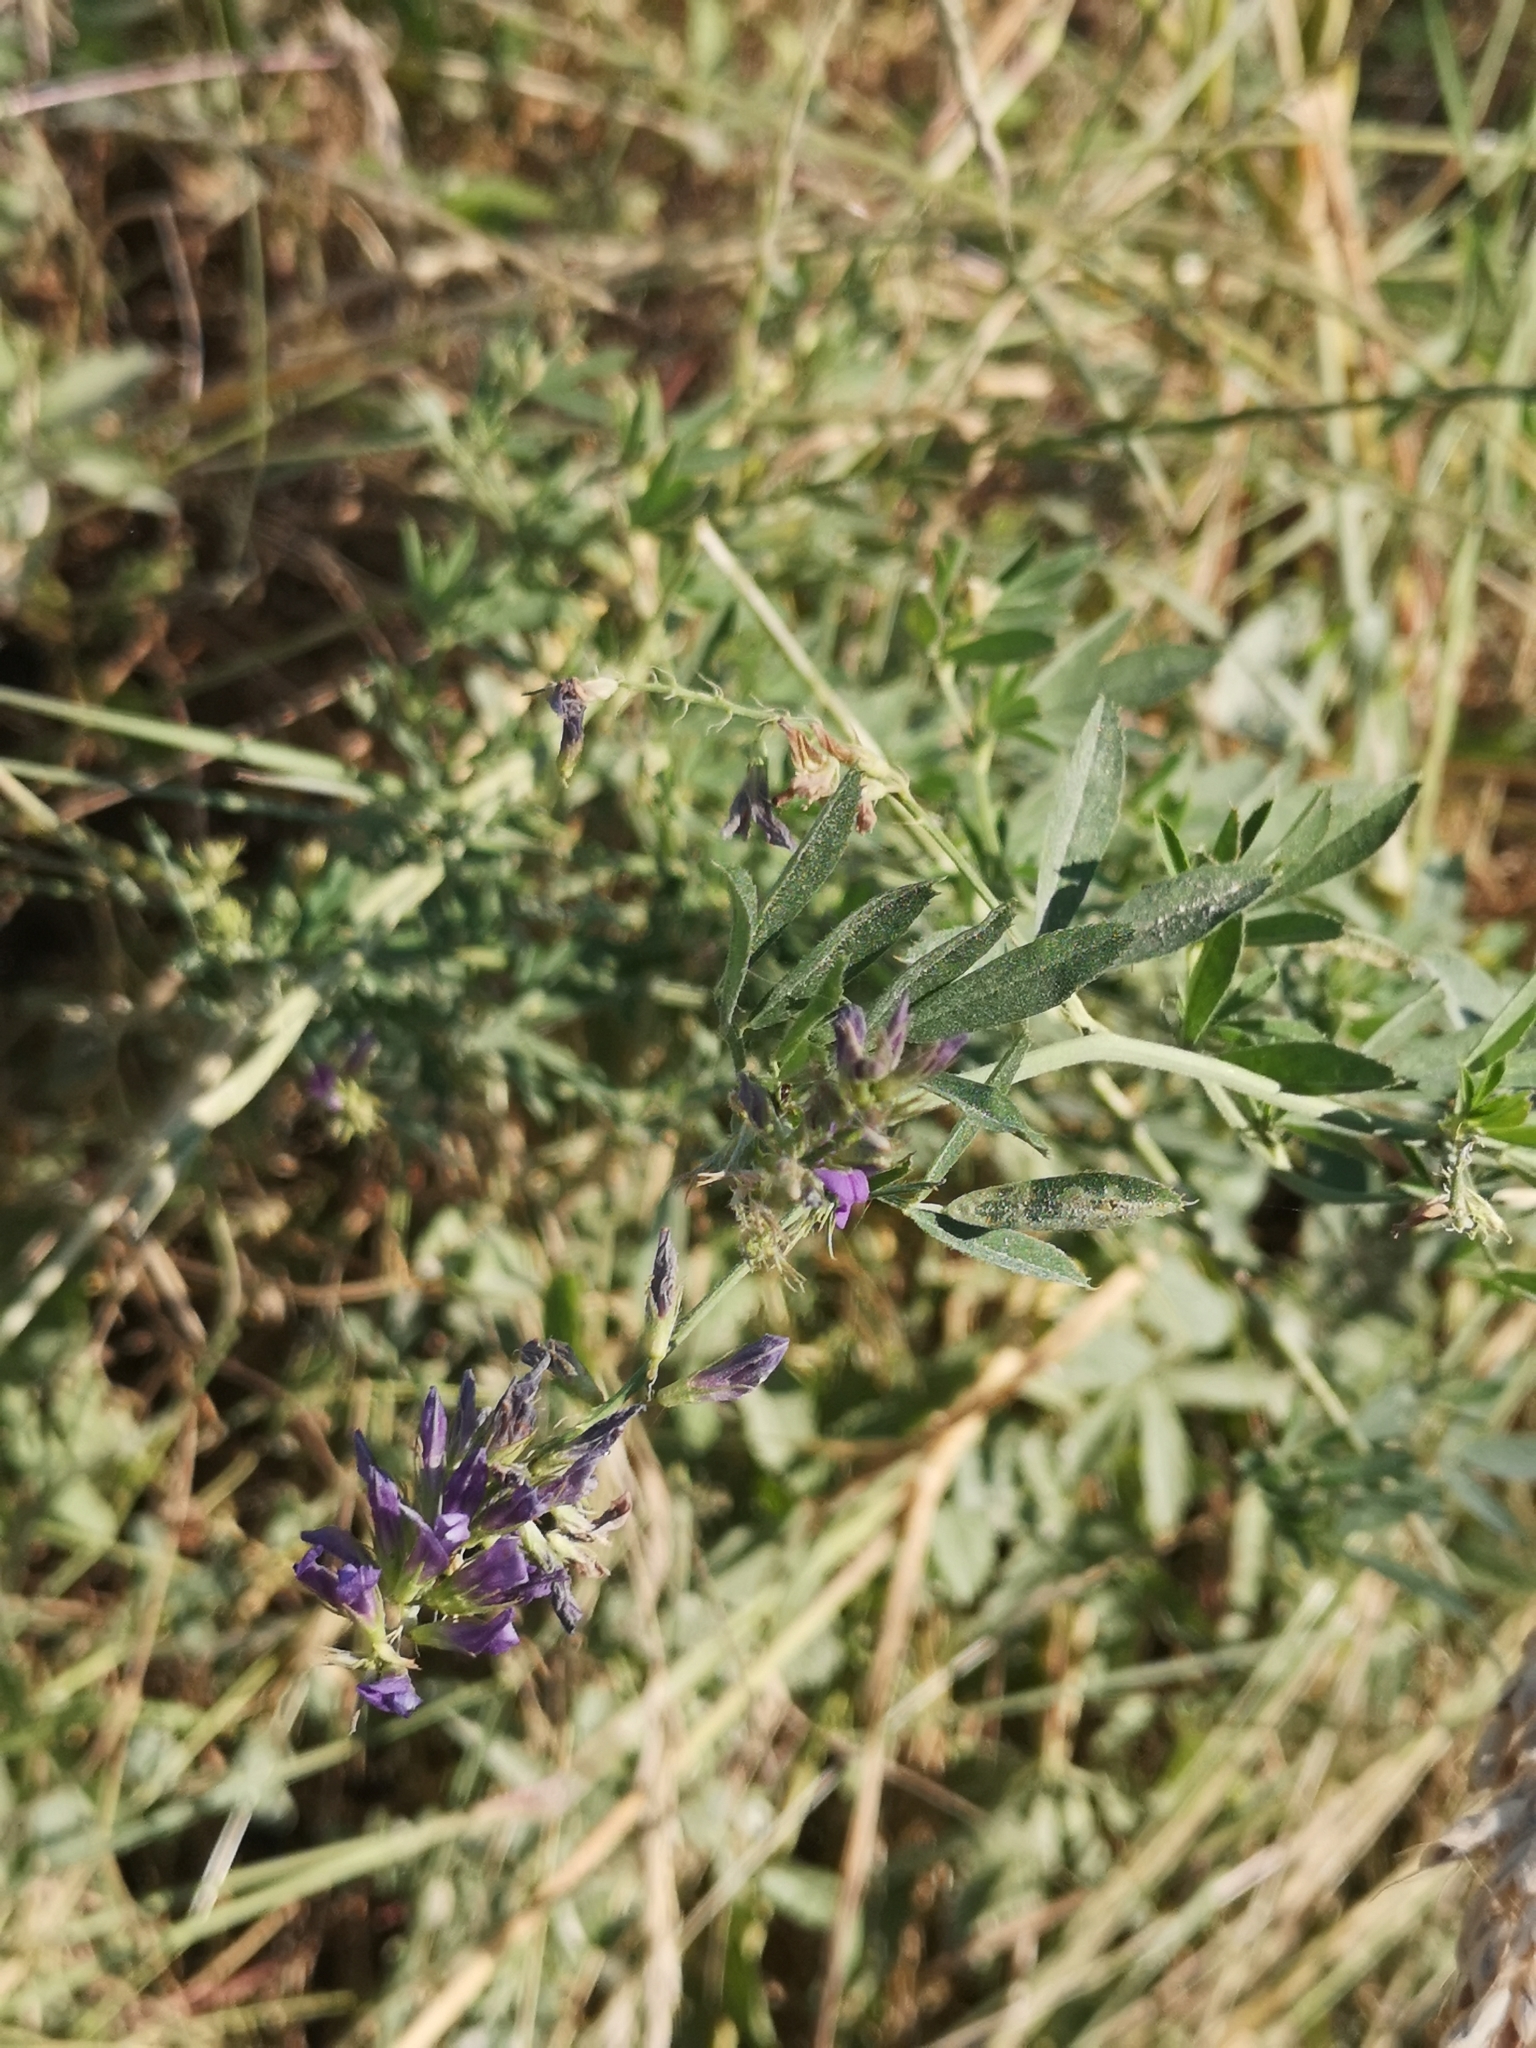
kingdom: Plantae
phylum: Tracheophyta
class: Magnoliopsida
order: Fabales
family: Fabaceae
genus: Medicago
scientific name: Medicago sativa
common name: Alfalfa
